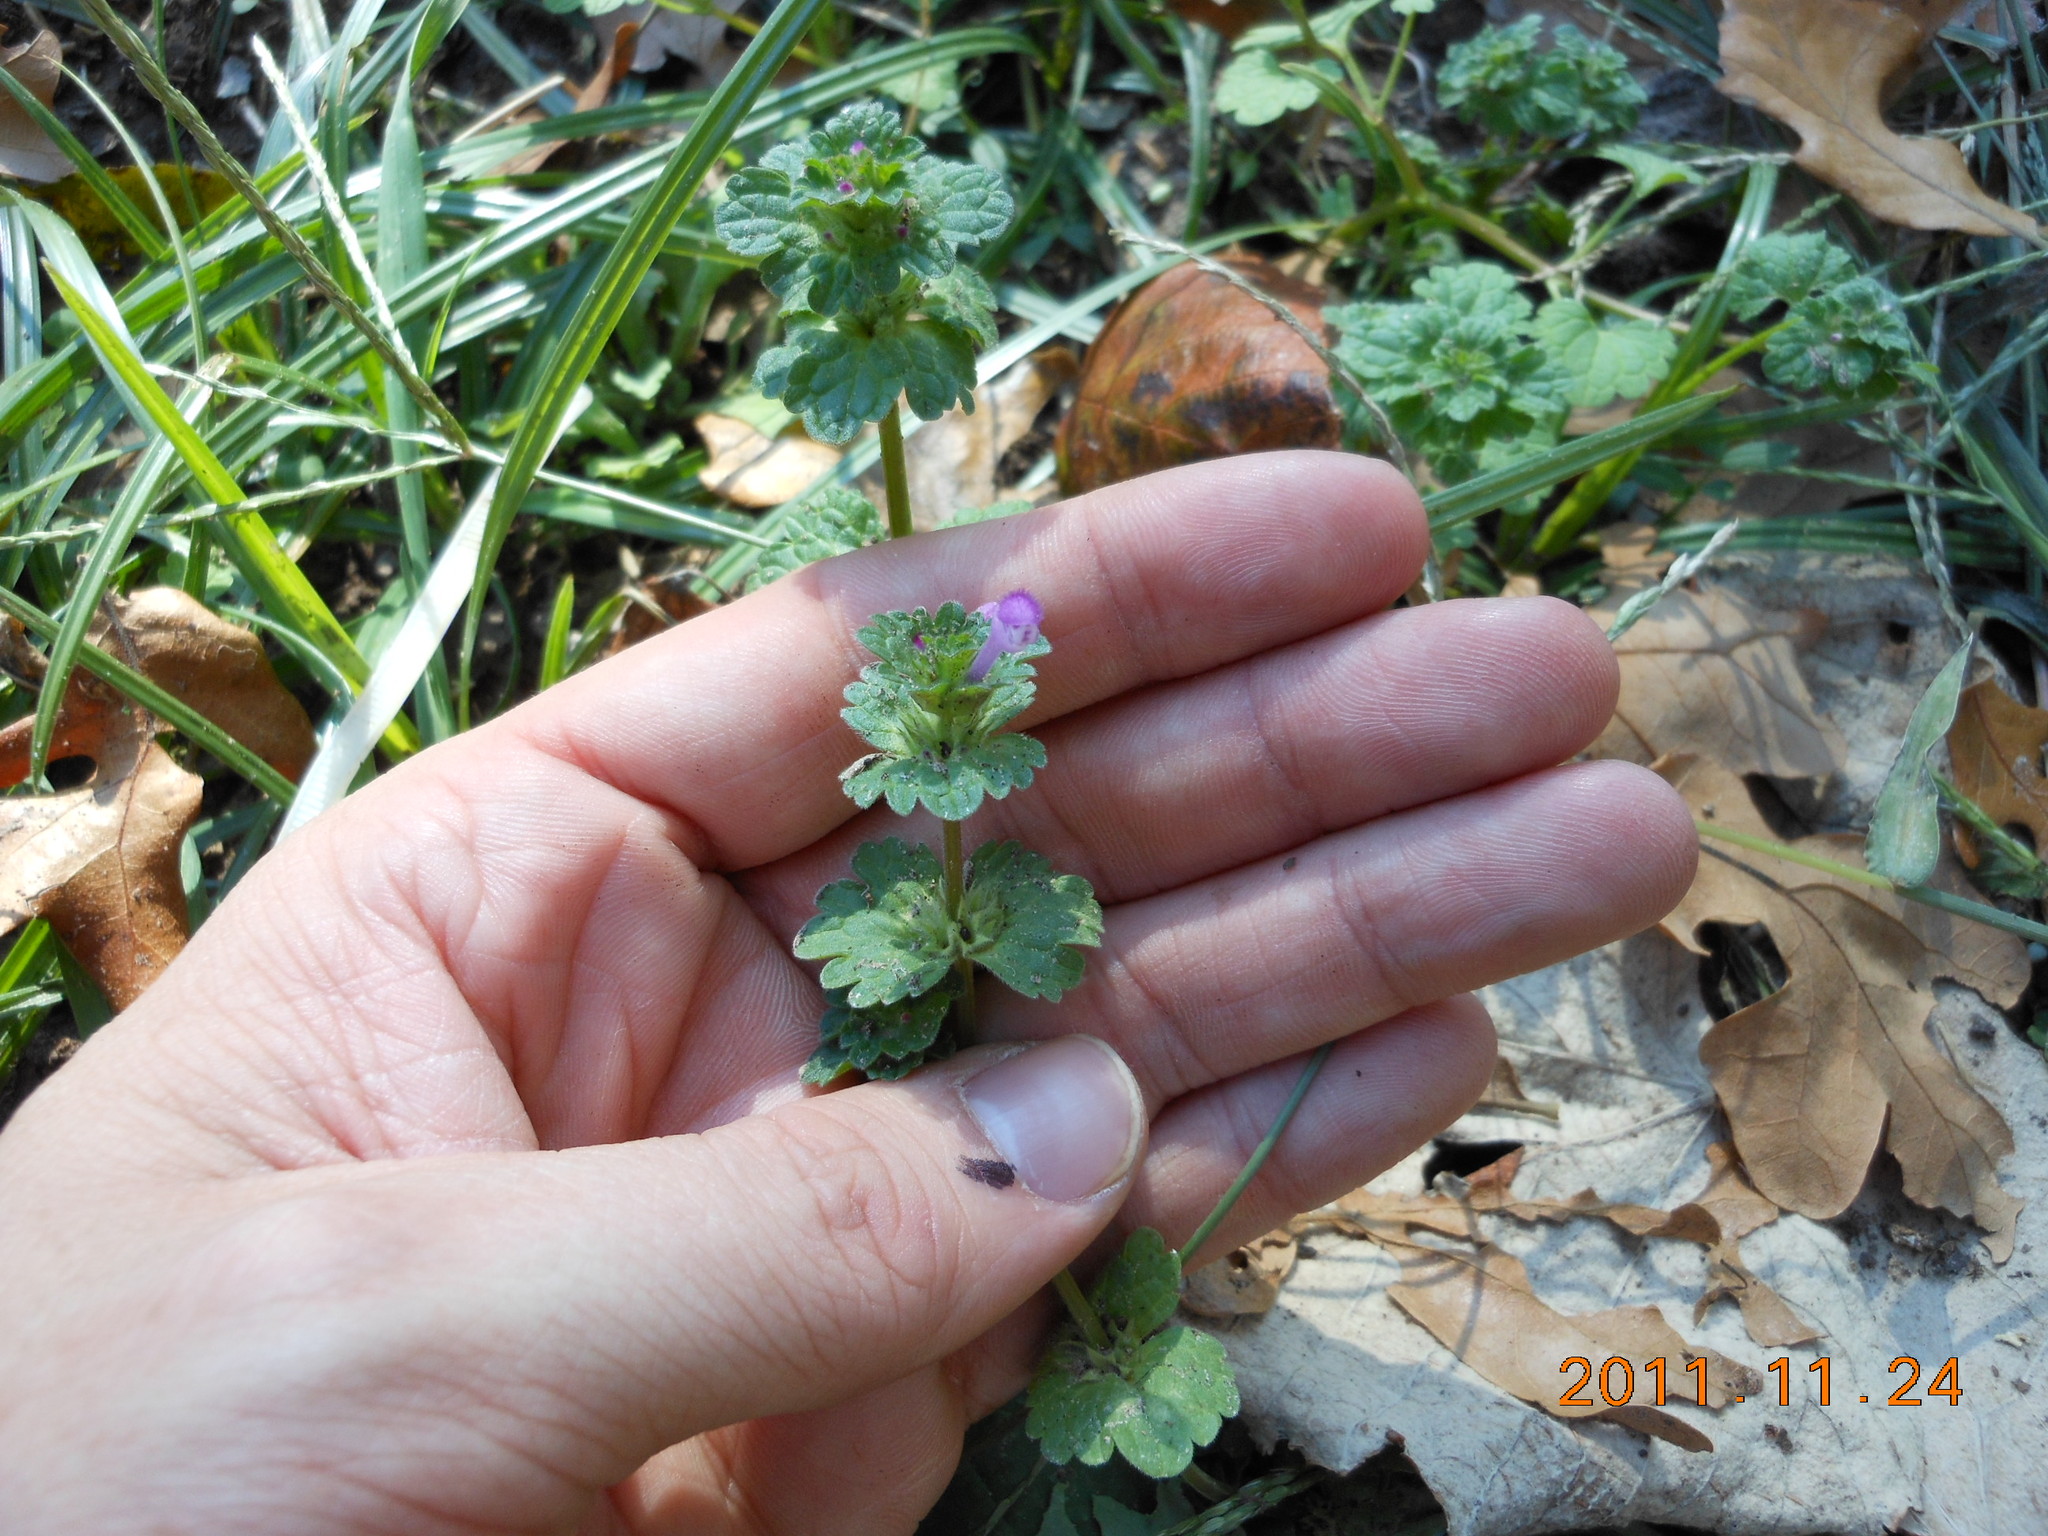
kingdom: Plantae
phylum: Tracheophyta
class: Magnoliopsida
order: Lamiales
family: Lamiaceae
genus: Lamium
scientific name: Lamium amplexicaule
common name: Henbit dead-nettle
